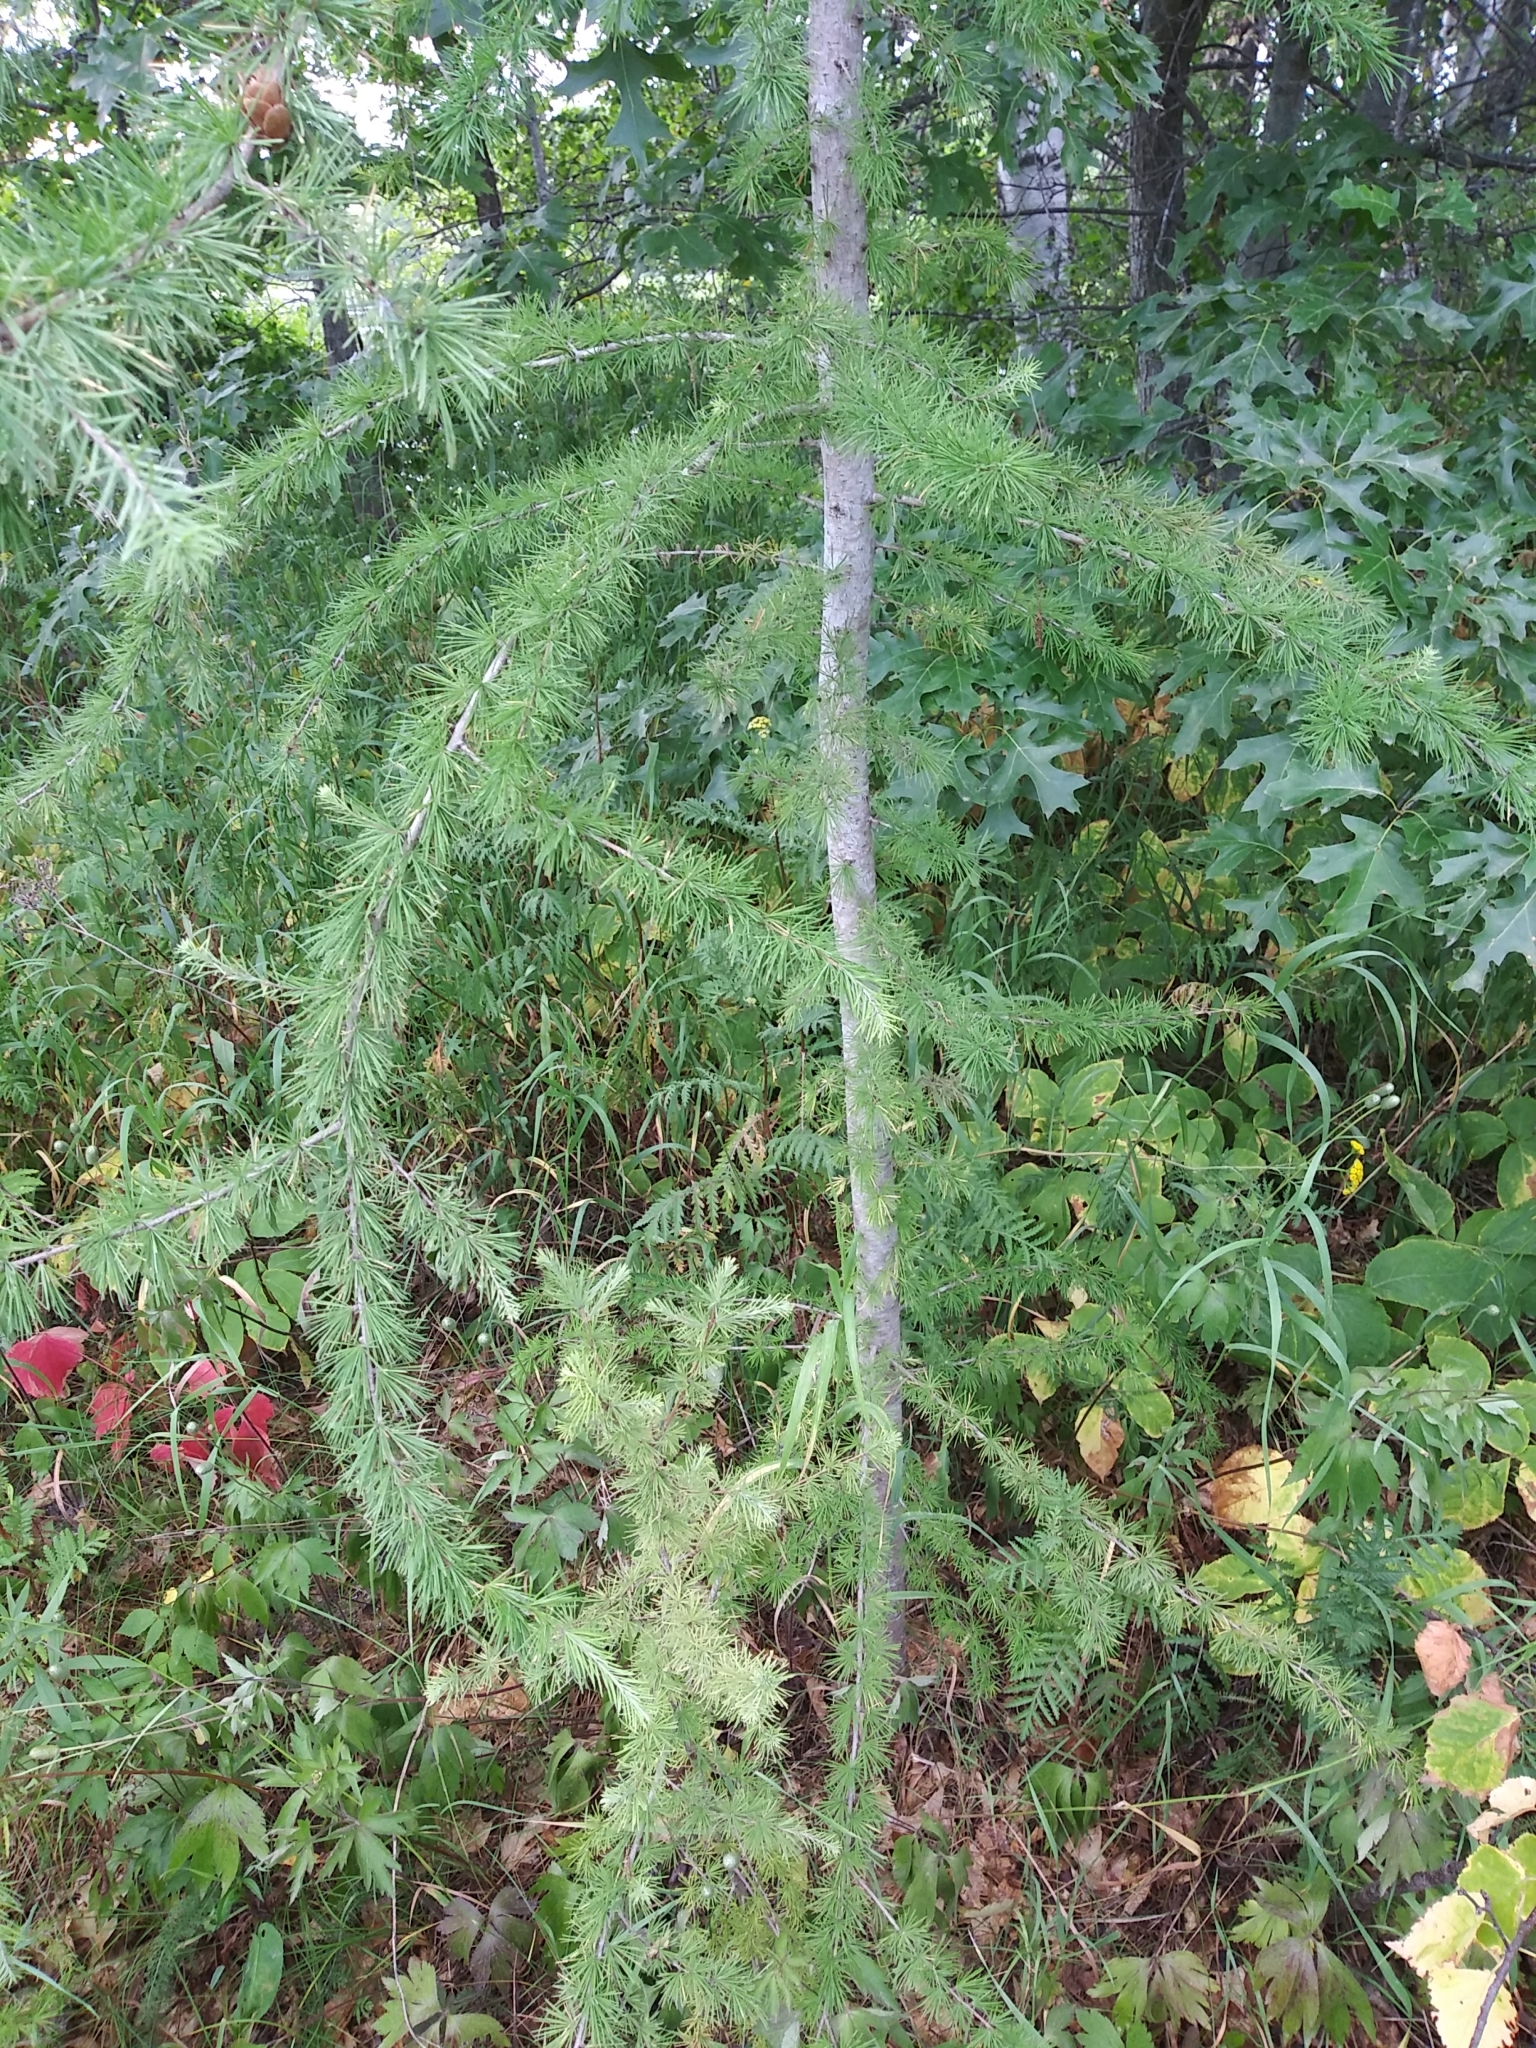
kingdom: Plantae
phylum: Tracheophyta
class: Pinopsida
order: Pinales
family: Pinaceae
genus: Larix
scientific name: Larix laricina
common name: American larch
